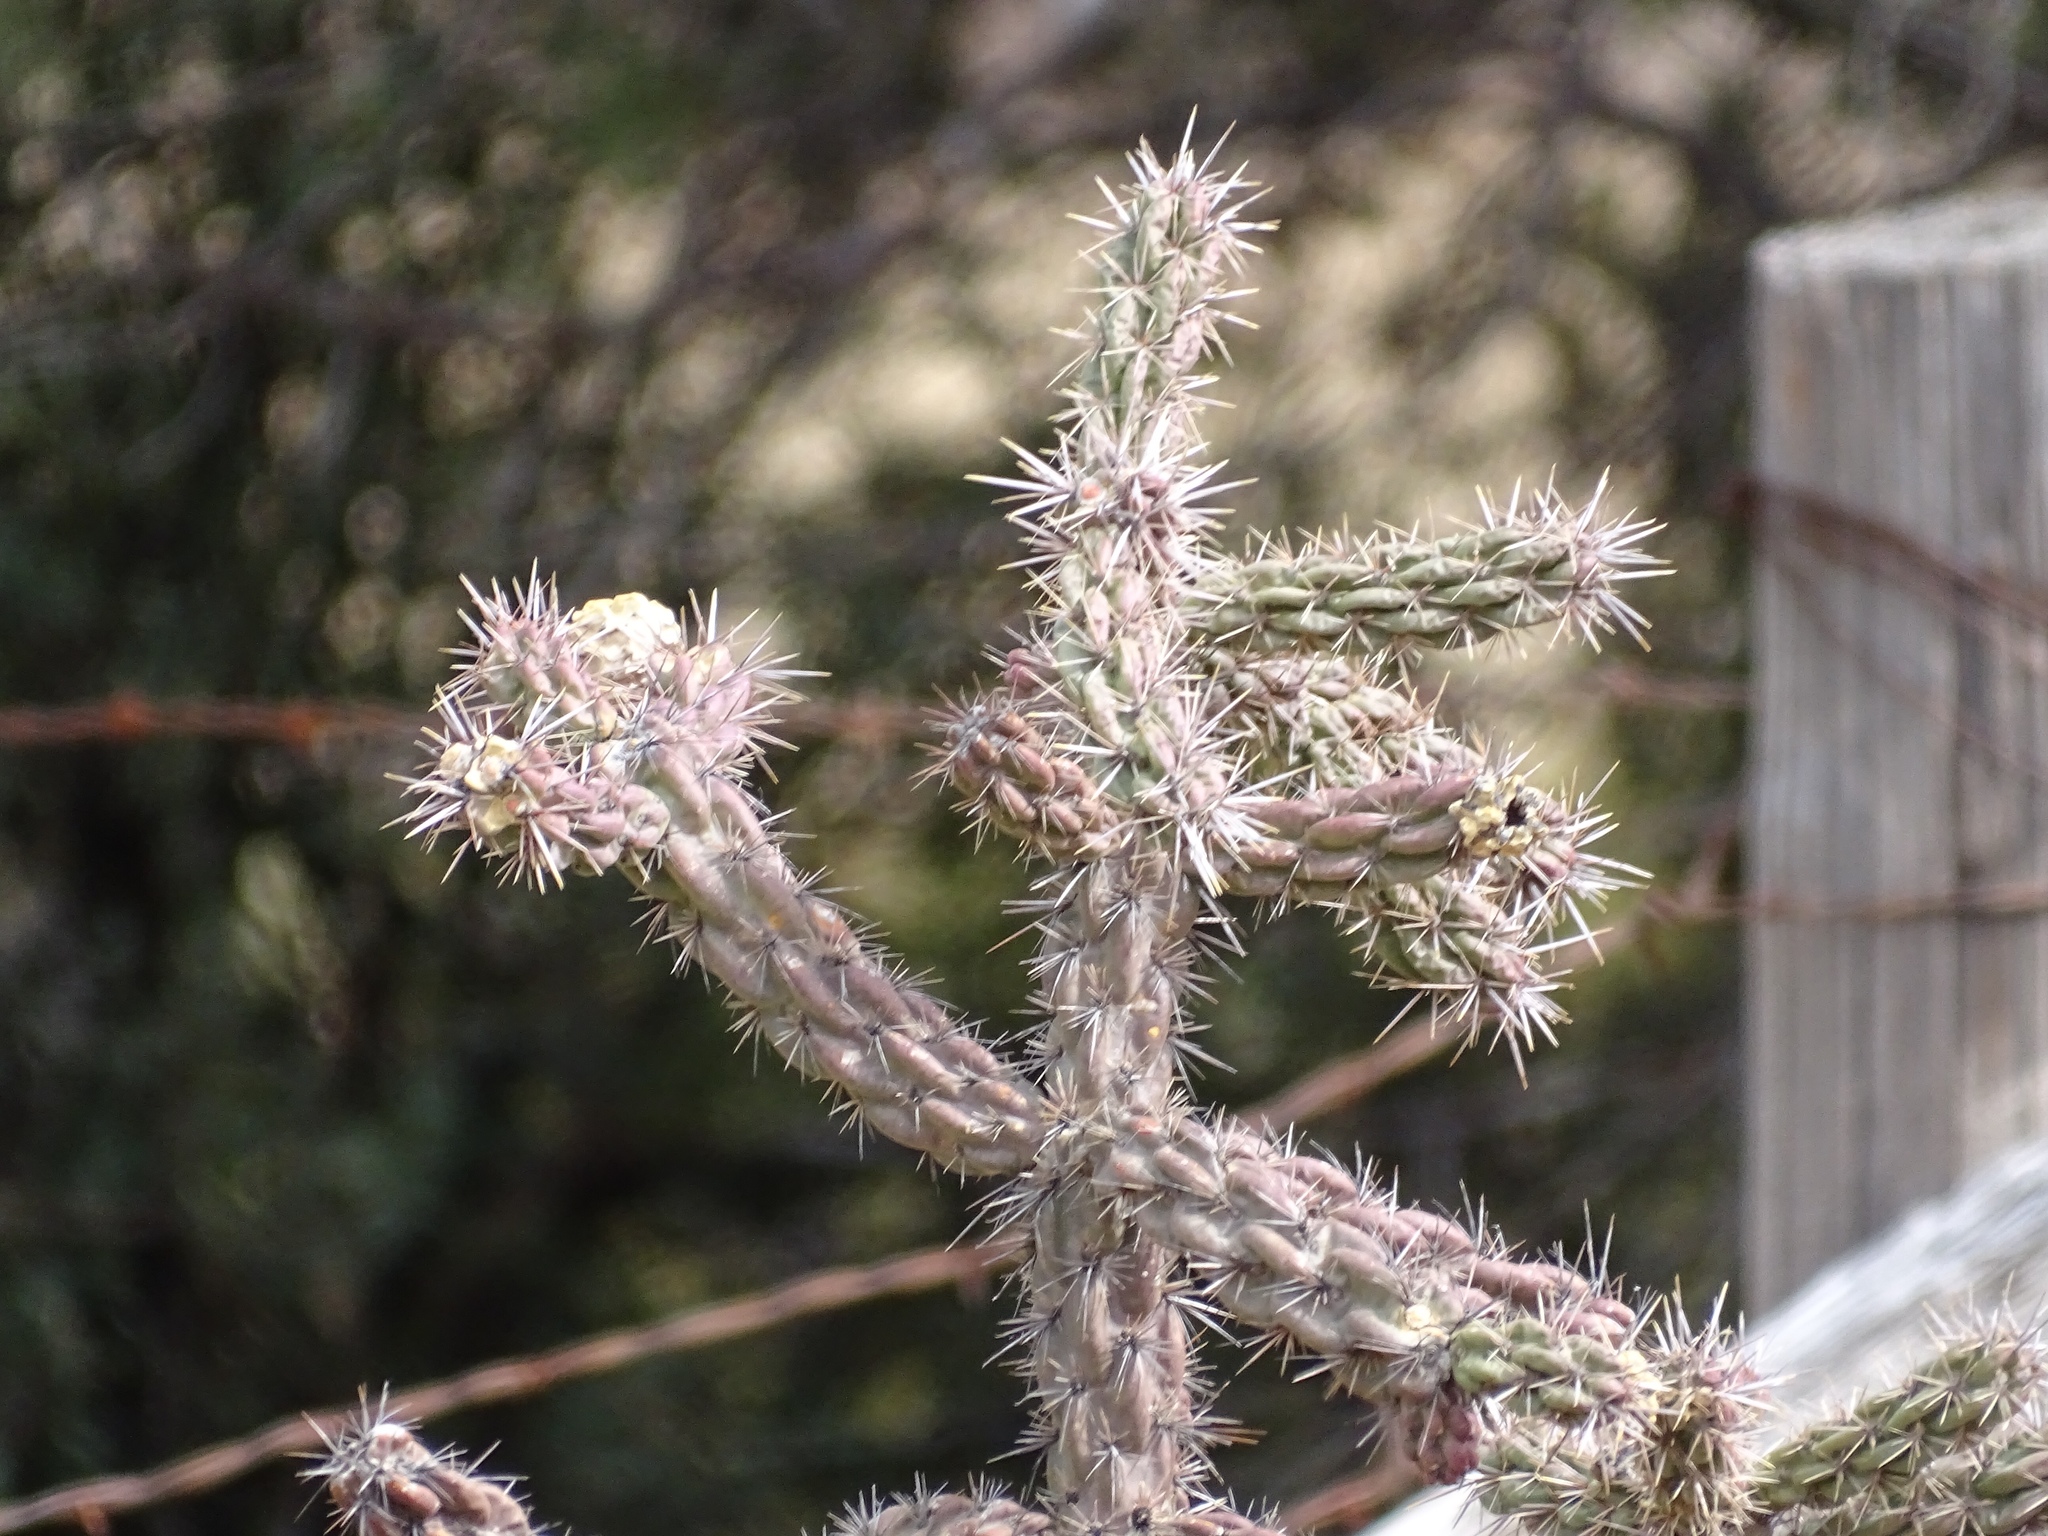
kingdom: Plantae
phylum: Tracheophyta
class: Magnoliopsida
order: Caryophyllales
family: Cactaceae
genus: Cylindropuntia
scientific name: Cylindropuntia imbricata
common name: Candelabrum cactus
